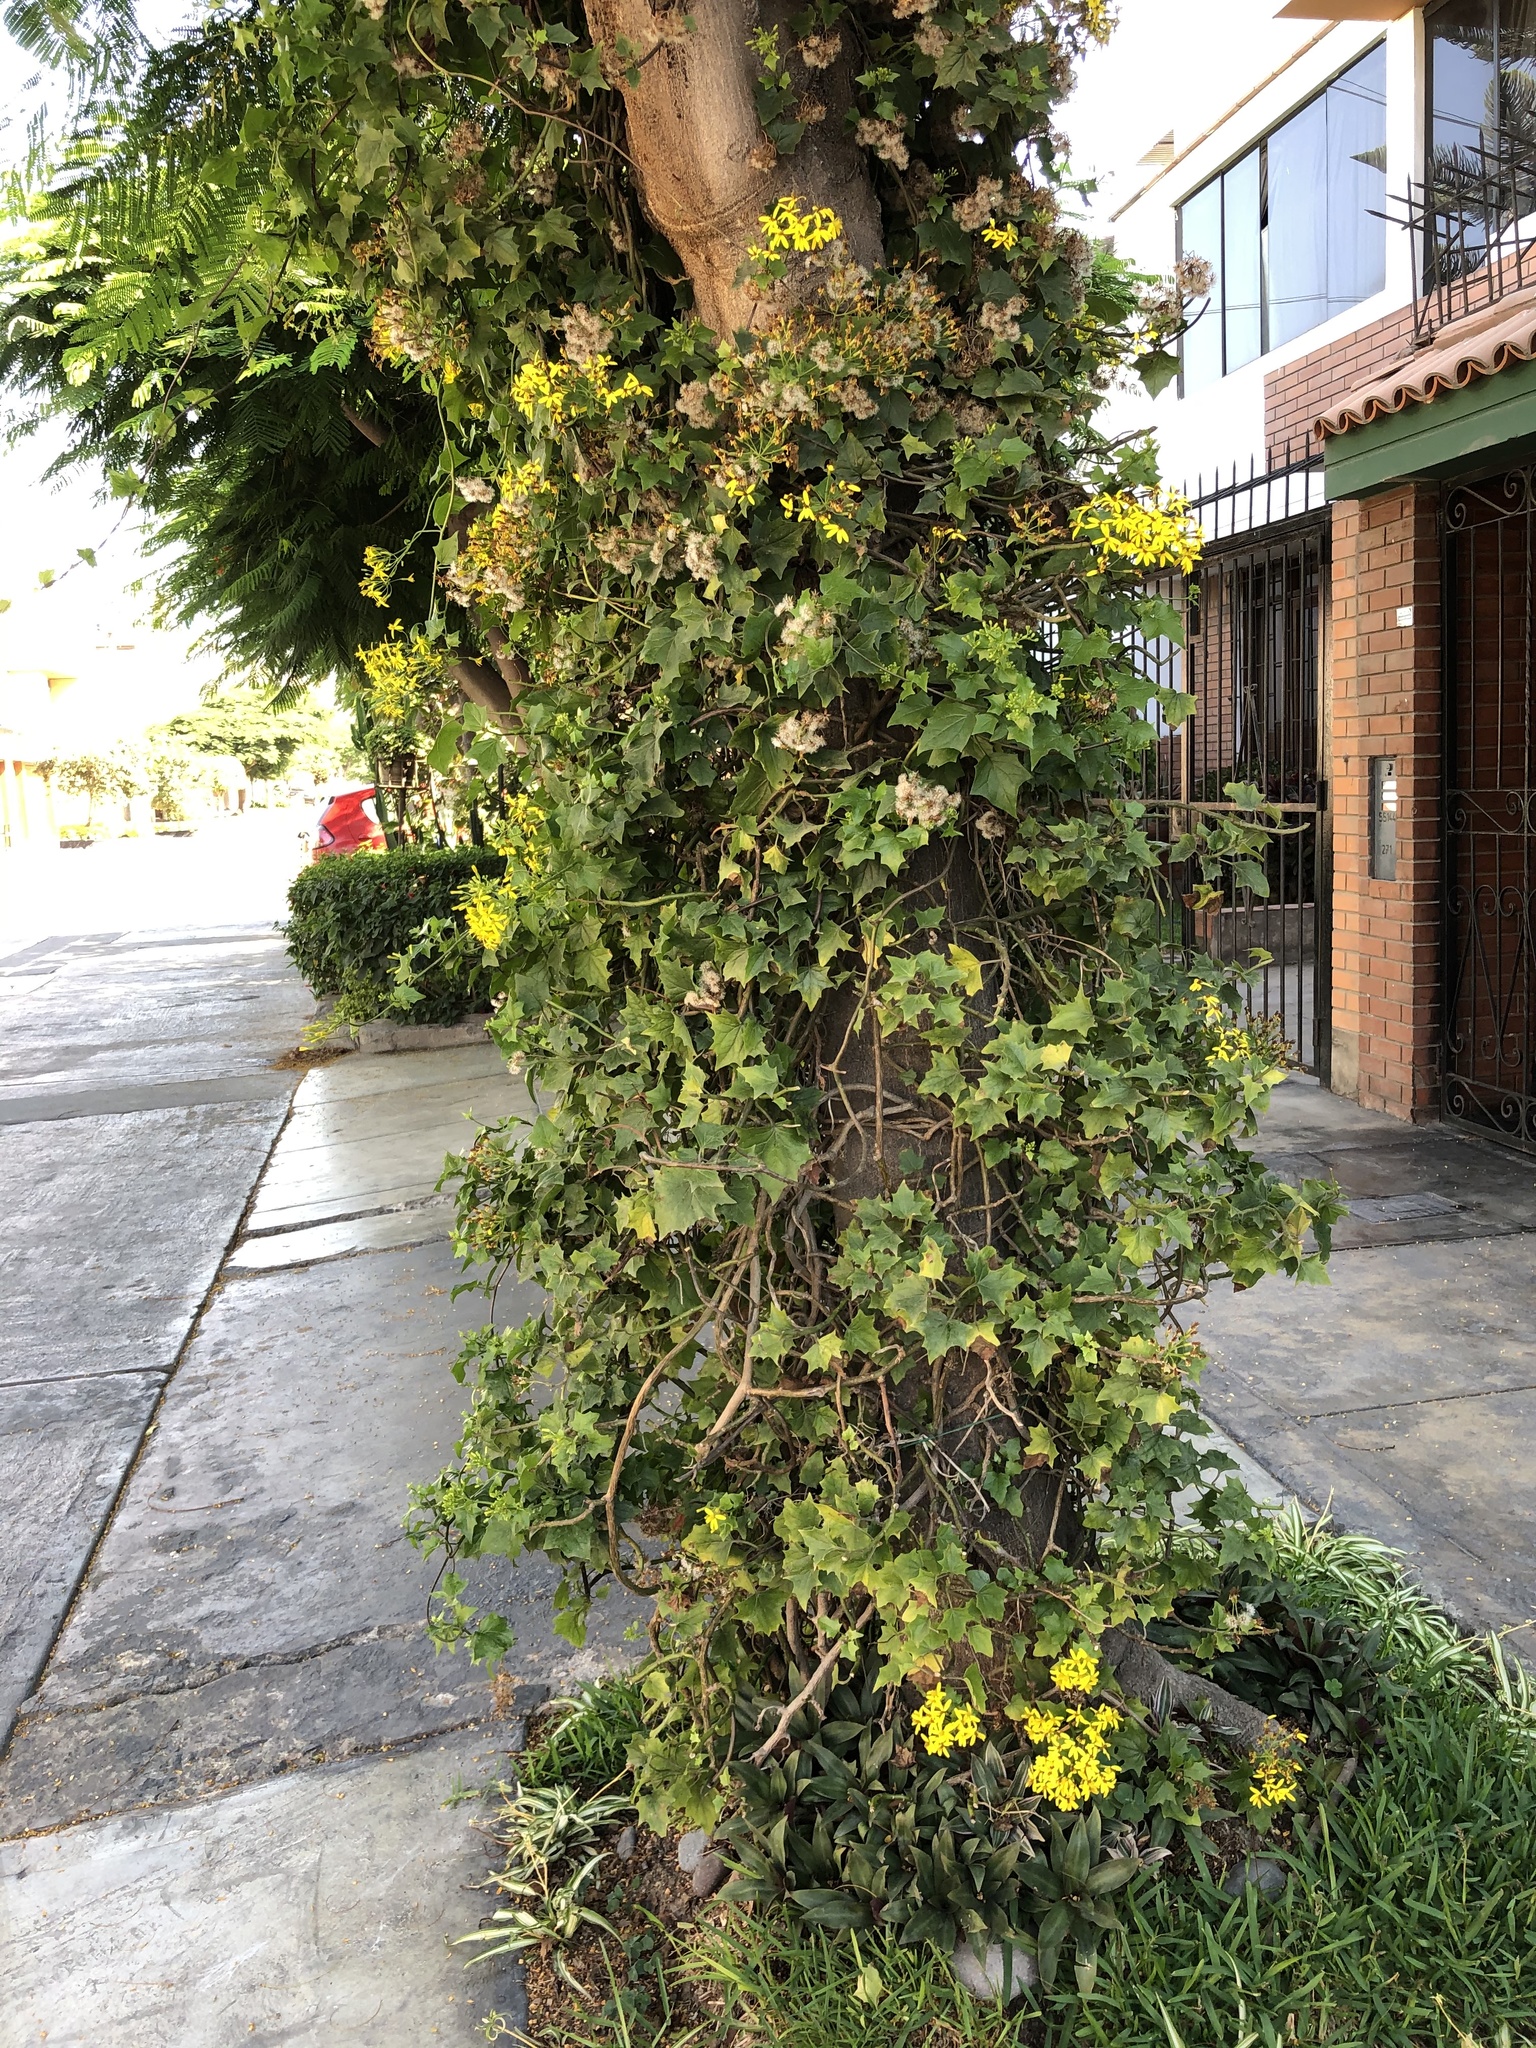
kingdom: Plantae
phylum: Tracheophyta
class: Magnoliopsida
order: Asterales
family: Asteraceae
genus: Senecio
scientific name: Senecio angulatus
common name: Climbing groundsel
